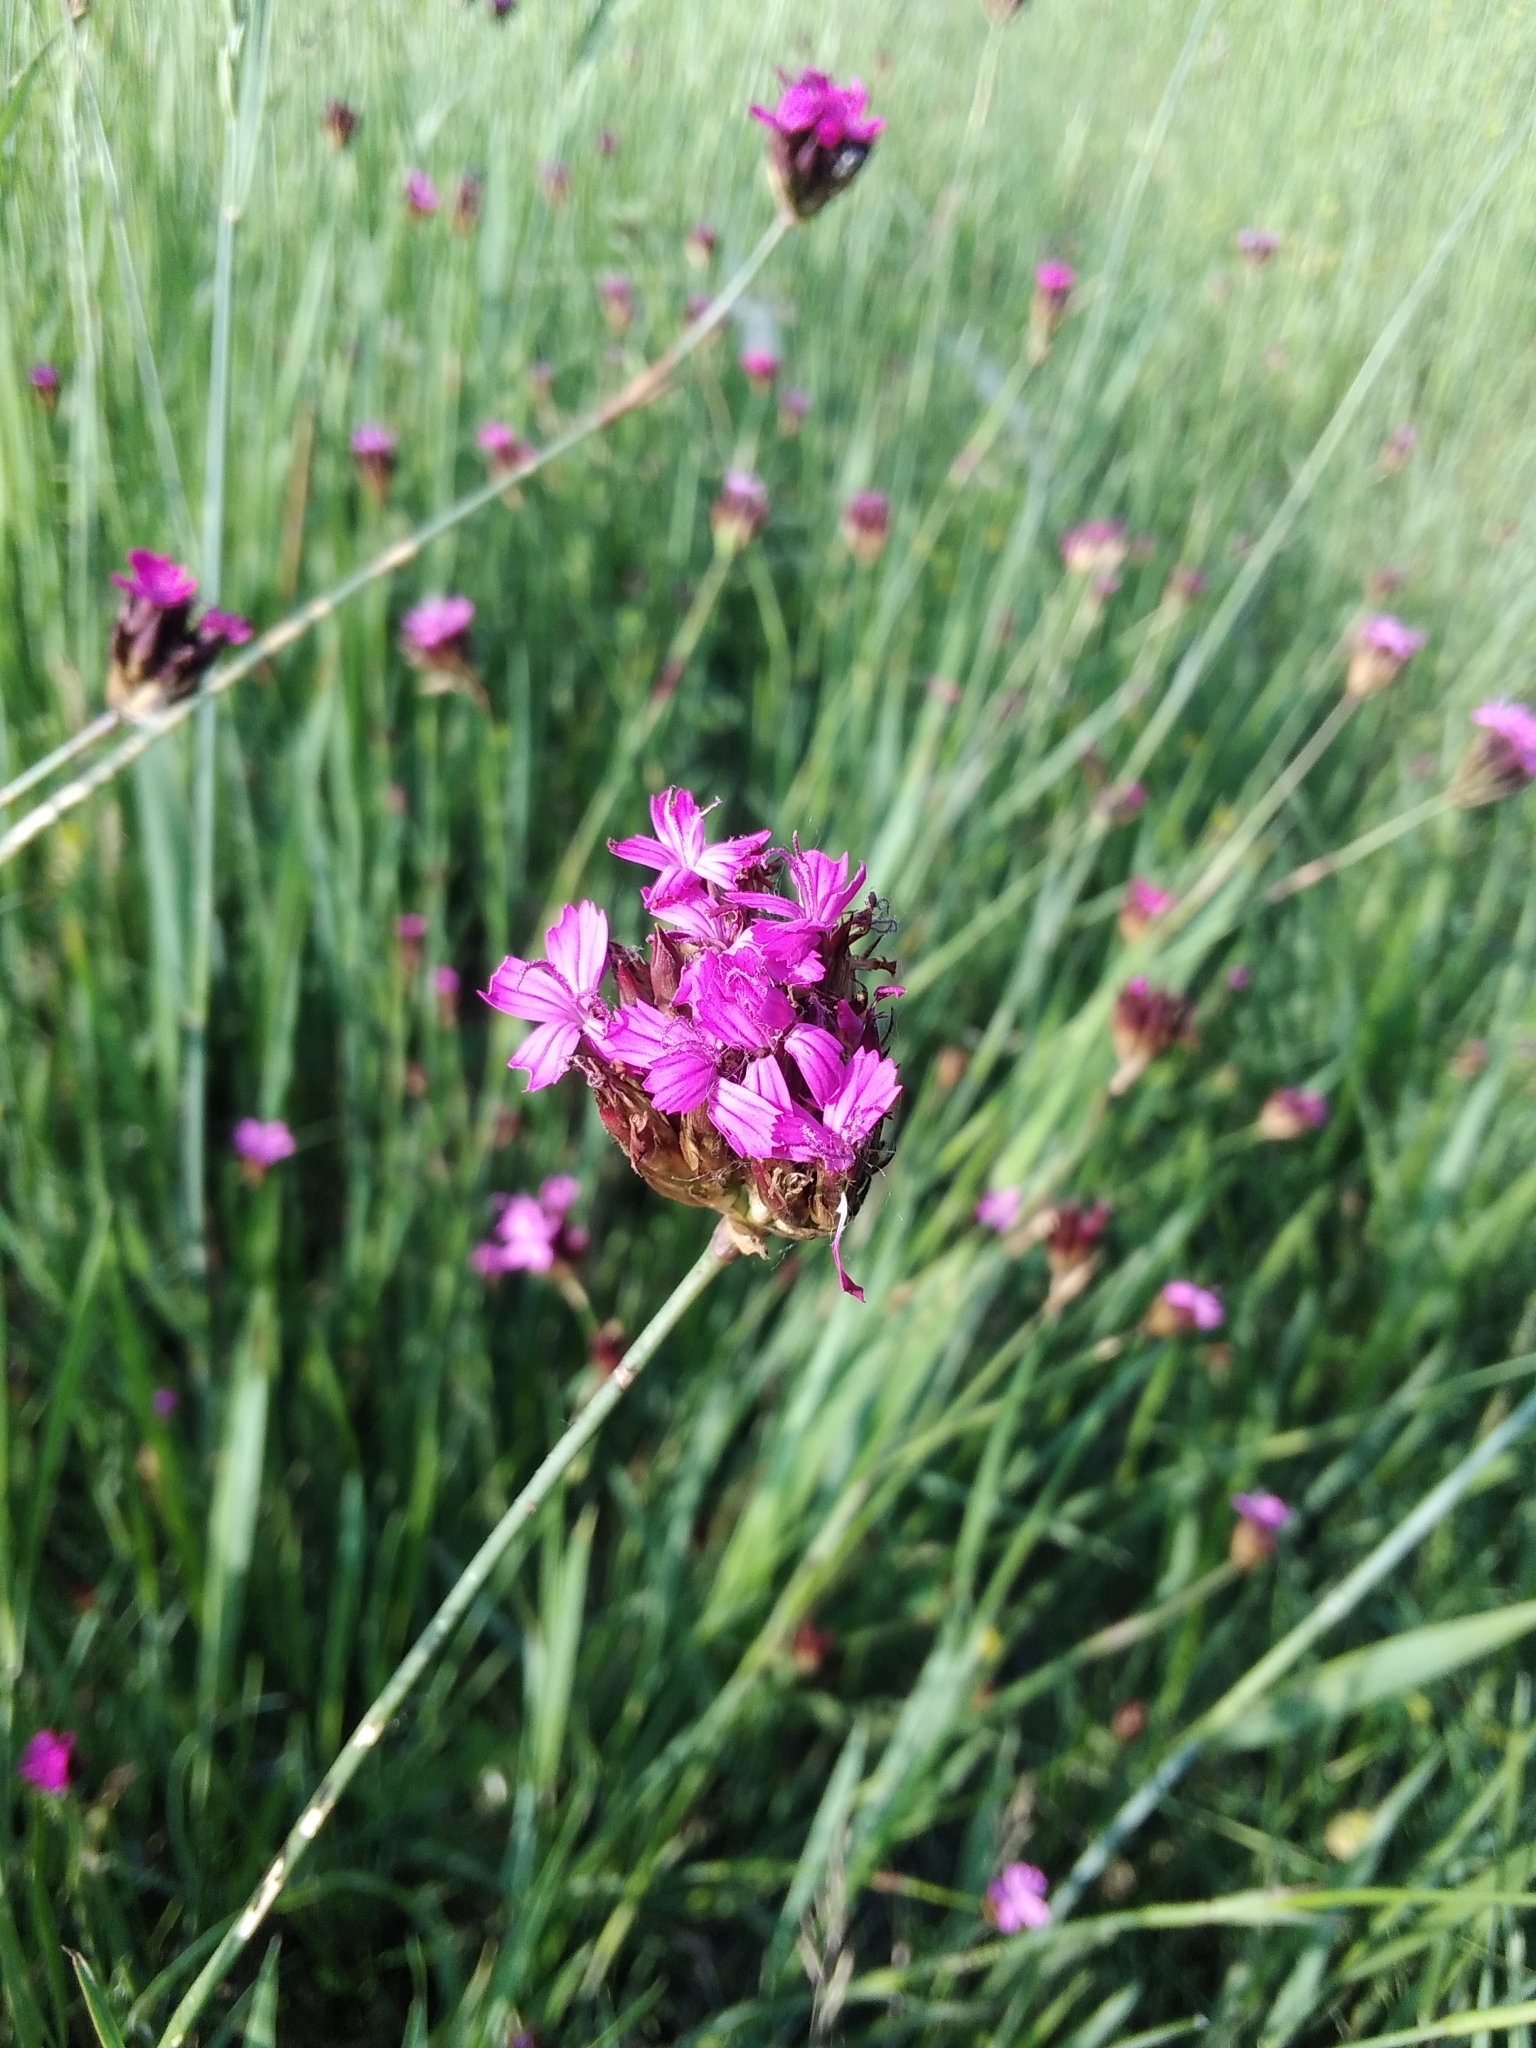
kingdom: Plantae
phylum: Tracheophyta
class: Magnoliopsida
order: Caryophyllales
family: Caryophyllaceae
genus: Dianthus
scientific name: Dianthus pontederae
